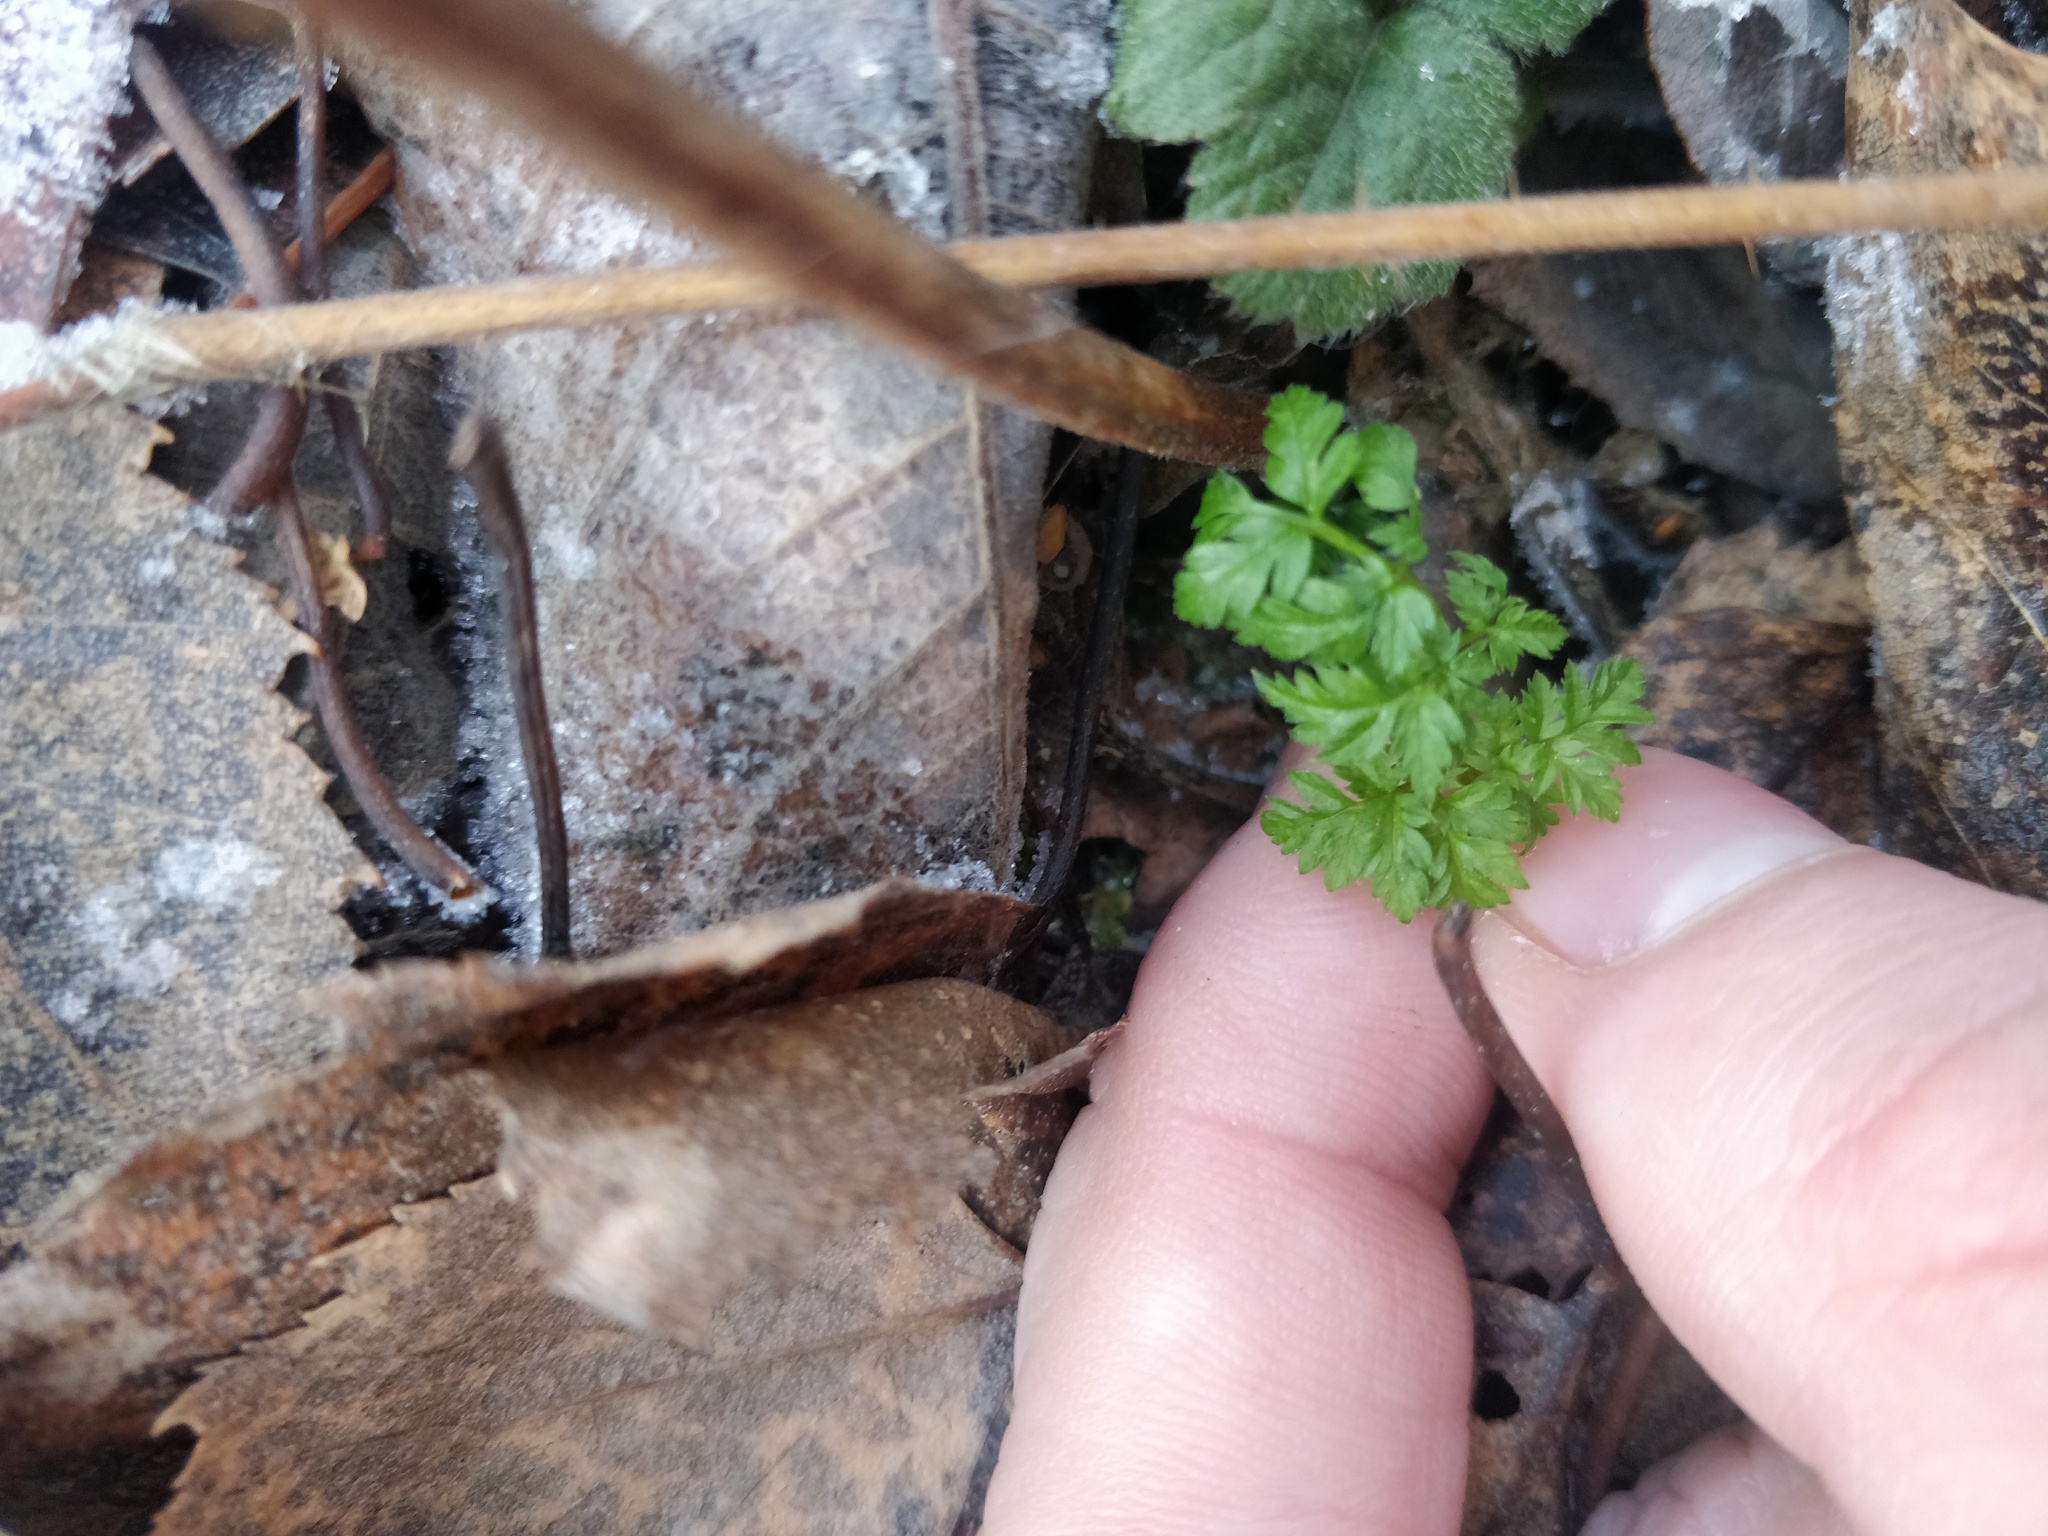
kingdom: Plantae
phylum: Tracheophyta
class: Magnoliopsida
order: Apiales
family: Apiaceae
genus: Anthriscus
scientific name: Anthriscus sylvestris
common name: Cow parsley
